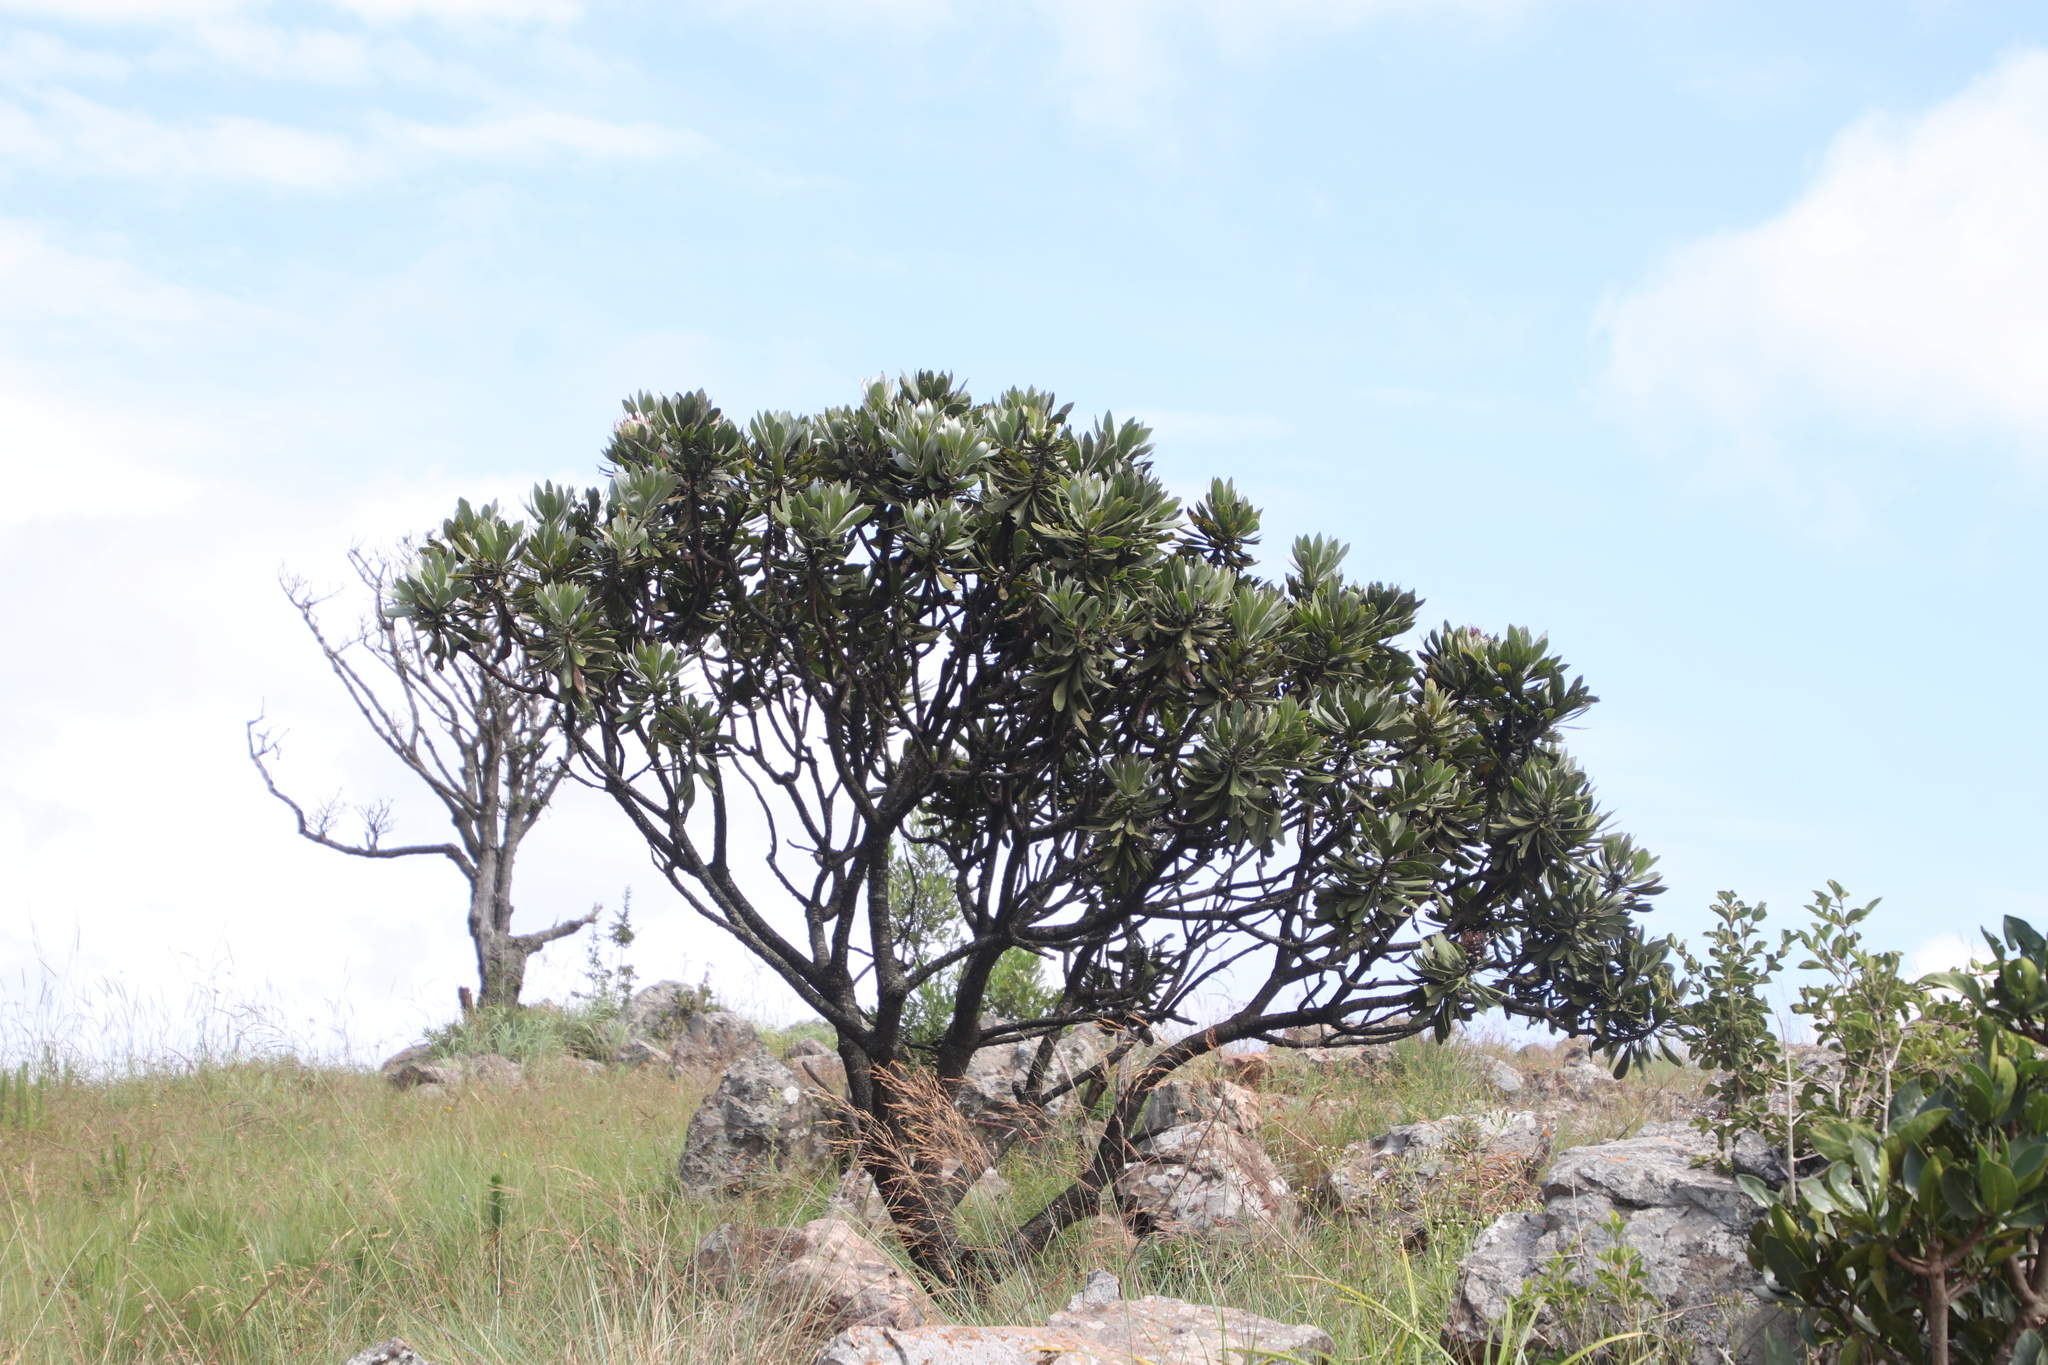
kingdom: Plantae
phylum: Tracheophyta
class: Magnoliopsida
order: Proteales
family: Proteaceae
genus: Protea
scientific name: Protea roupelliae
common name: Silver sugarbush
